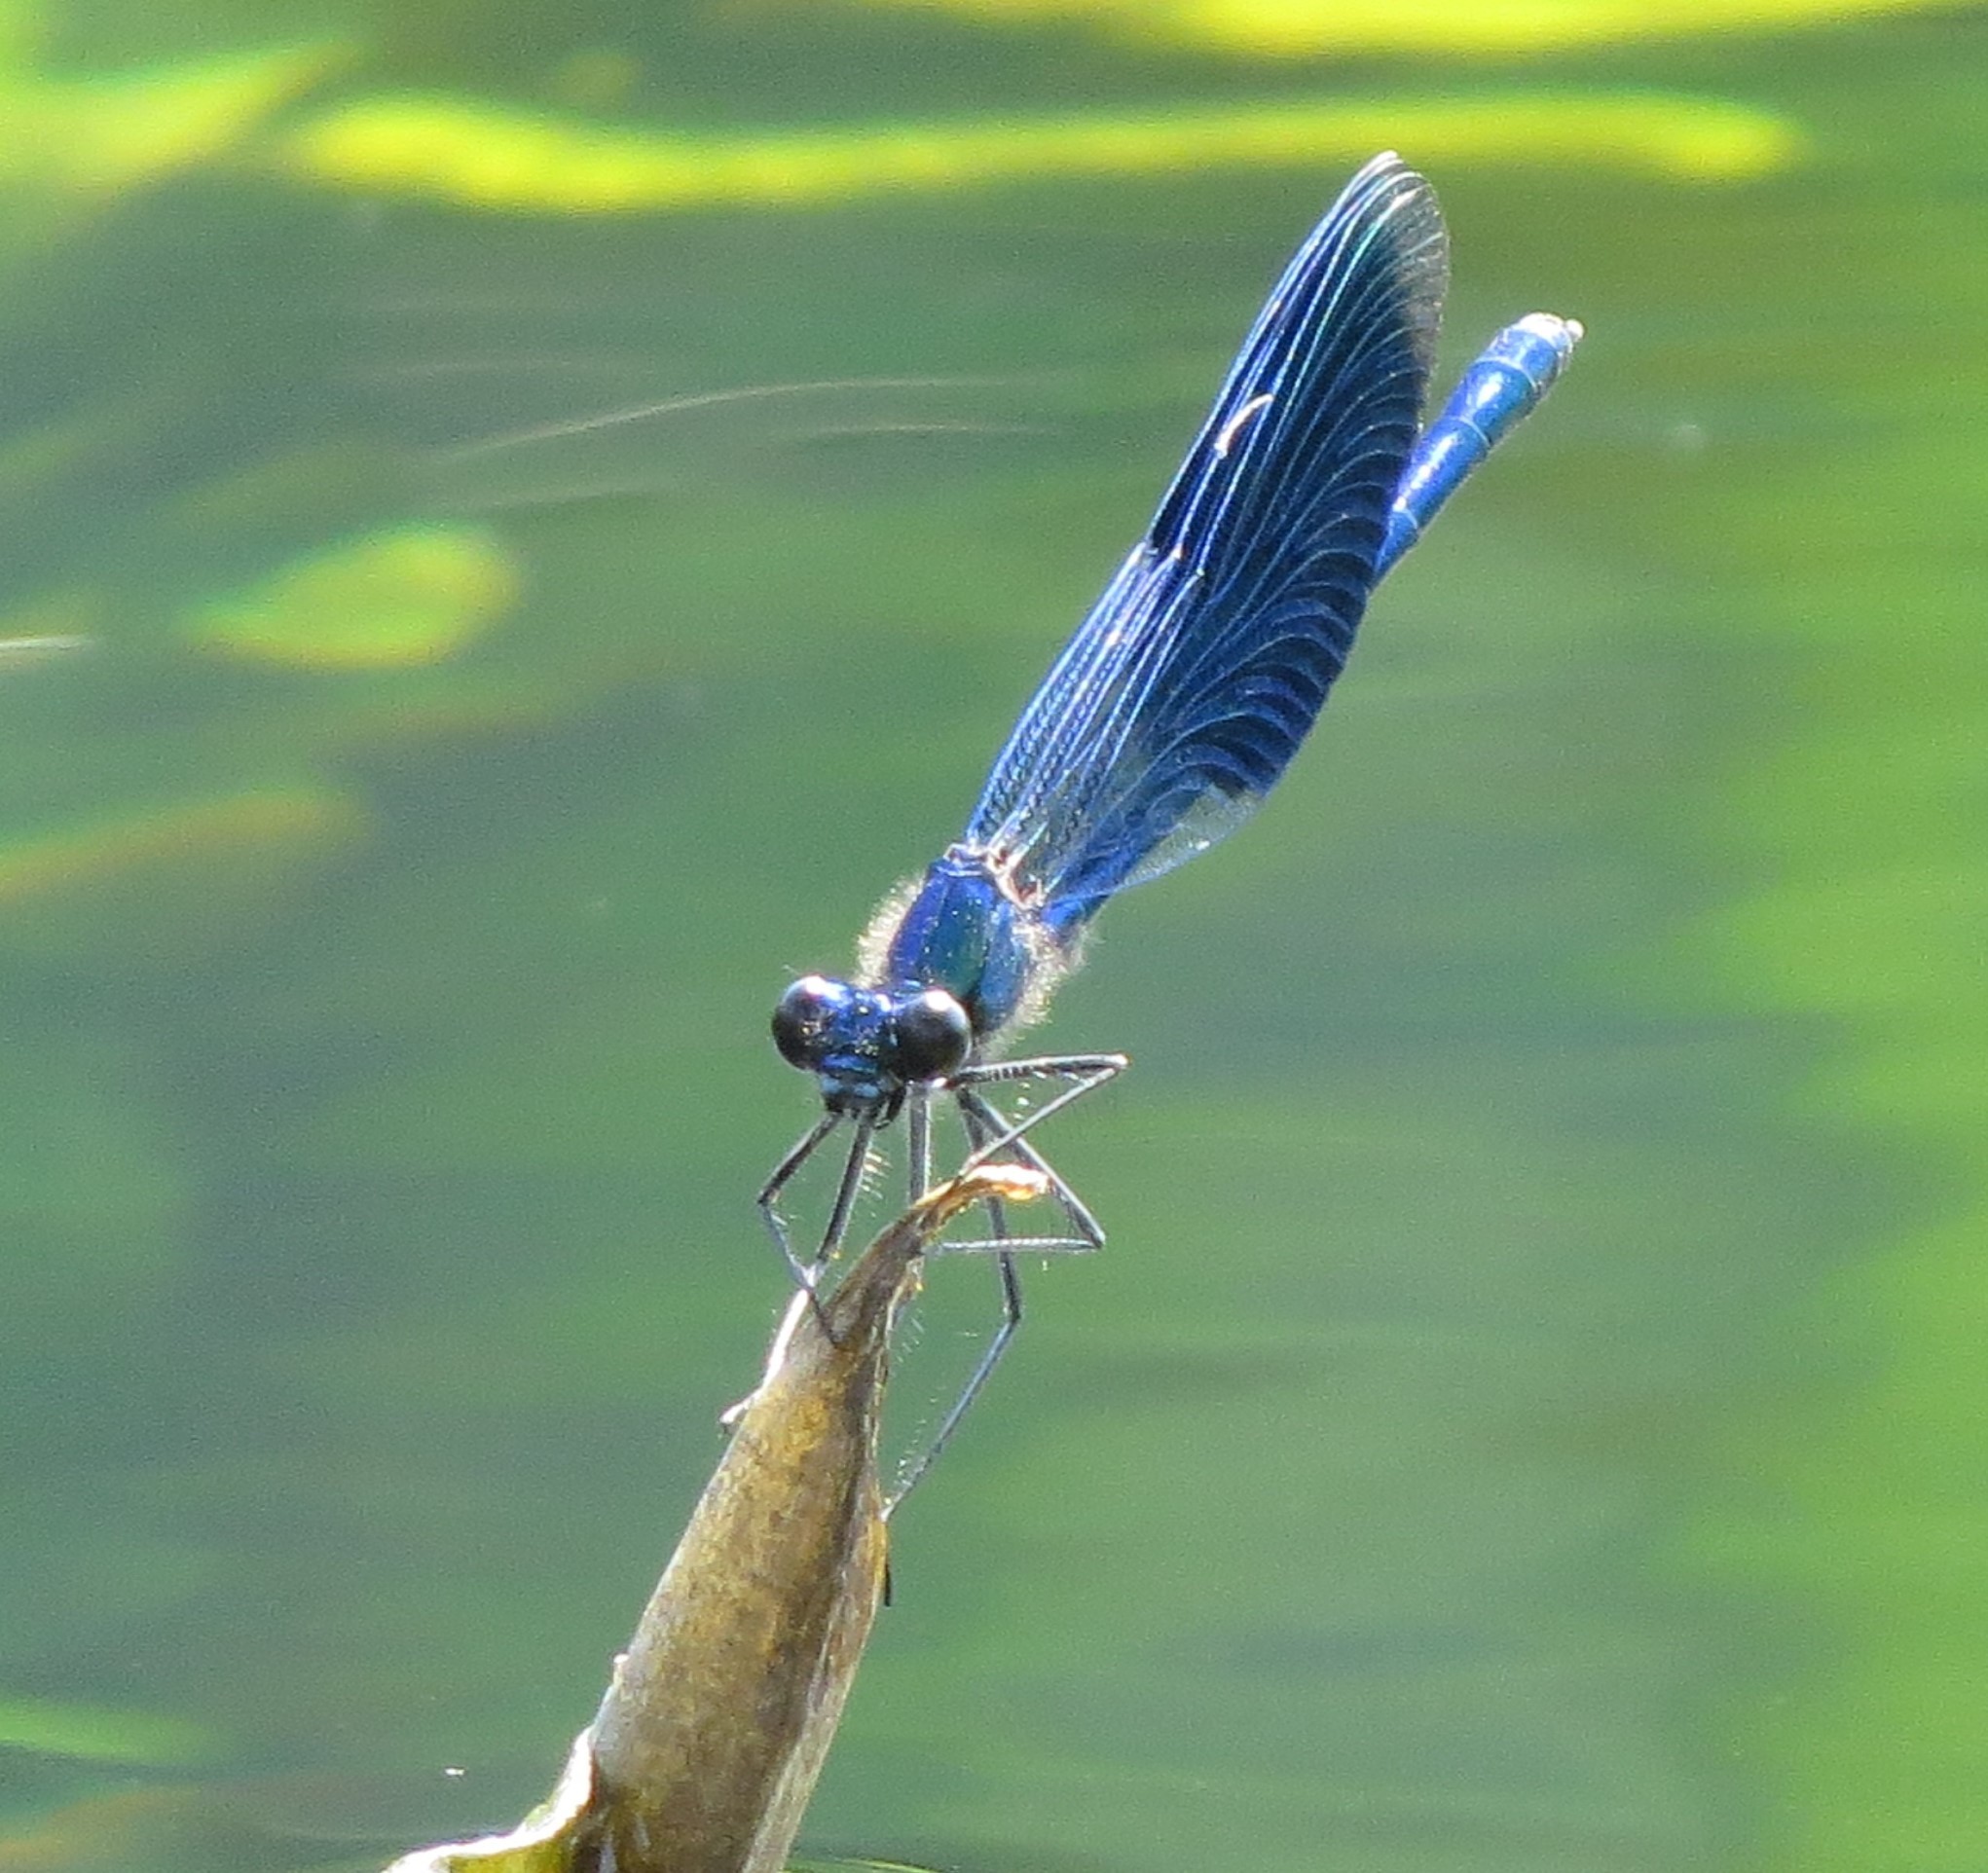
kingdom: Animalia
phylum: Arthropoda
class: Insecta
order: Odonata
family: Calopterygidae
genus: Calopteryx
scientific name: Calopteryx splendens
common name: Banded demoiselle
